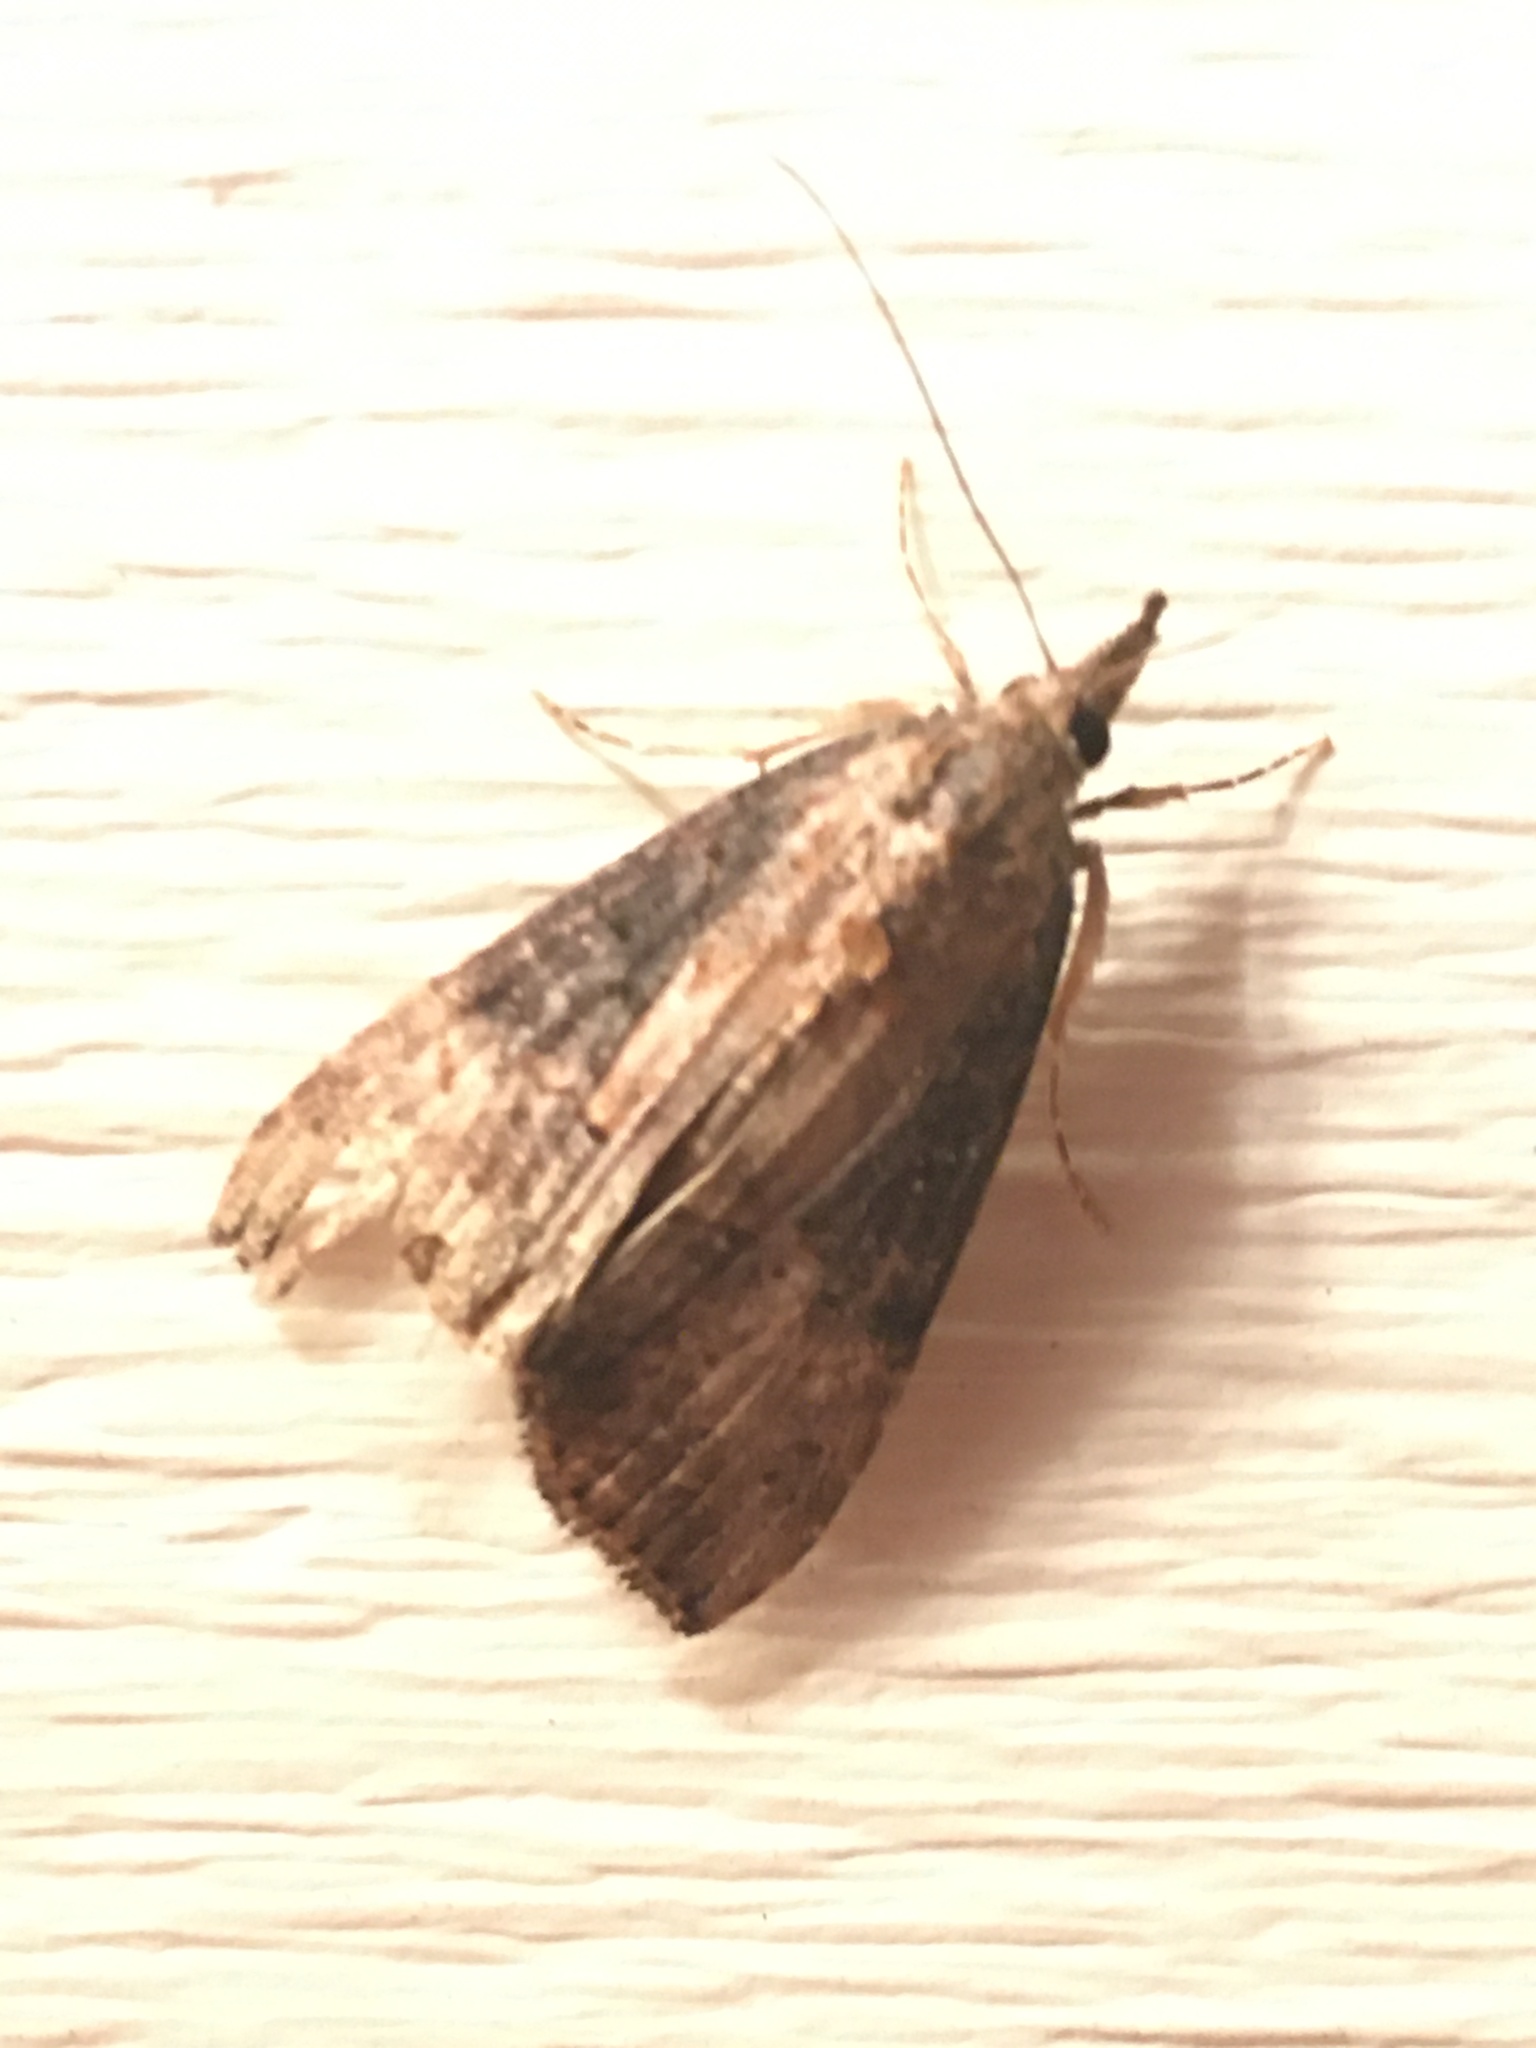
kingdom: Animalia
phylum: Arthropoda
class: Insecta
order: Lepidoptera
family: Erebidae
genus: Hypena
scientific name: Hypena scabra
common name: Green cloverworm
